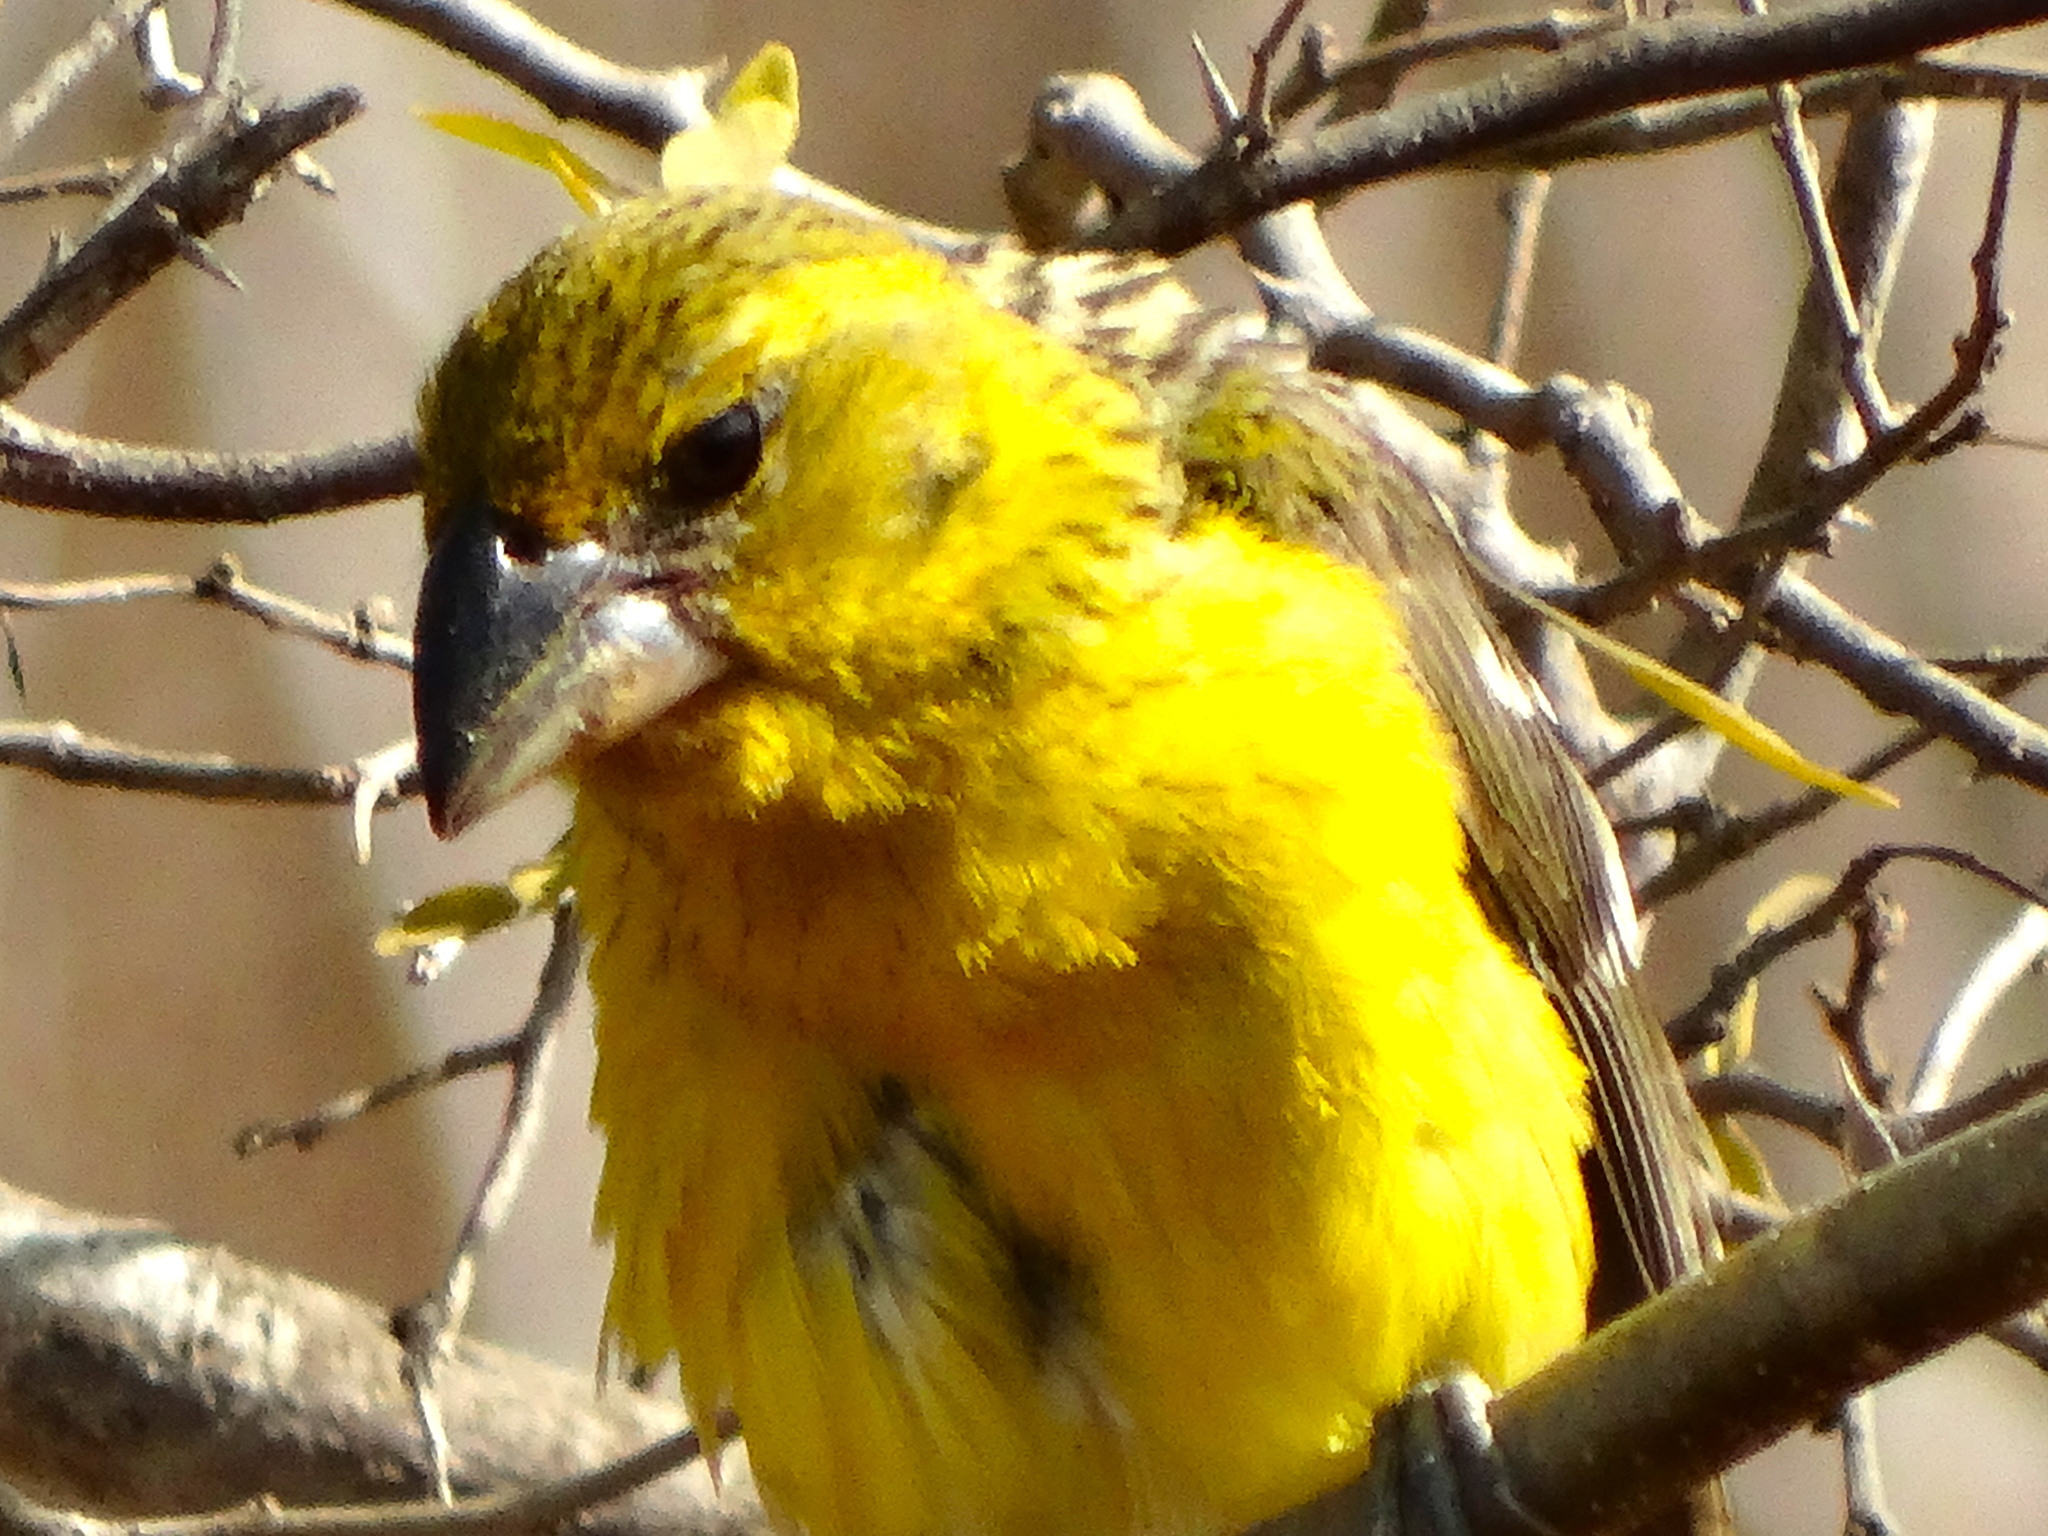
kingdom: Animalia
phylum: Chordata
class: Aves
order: Passeriformes
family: Cardinalidae
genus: Pheucticus
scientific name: Pheucticus chrysopeplus
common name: Yellow grosbeak
